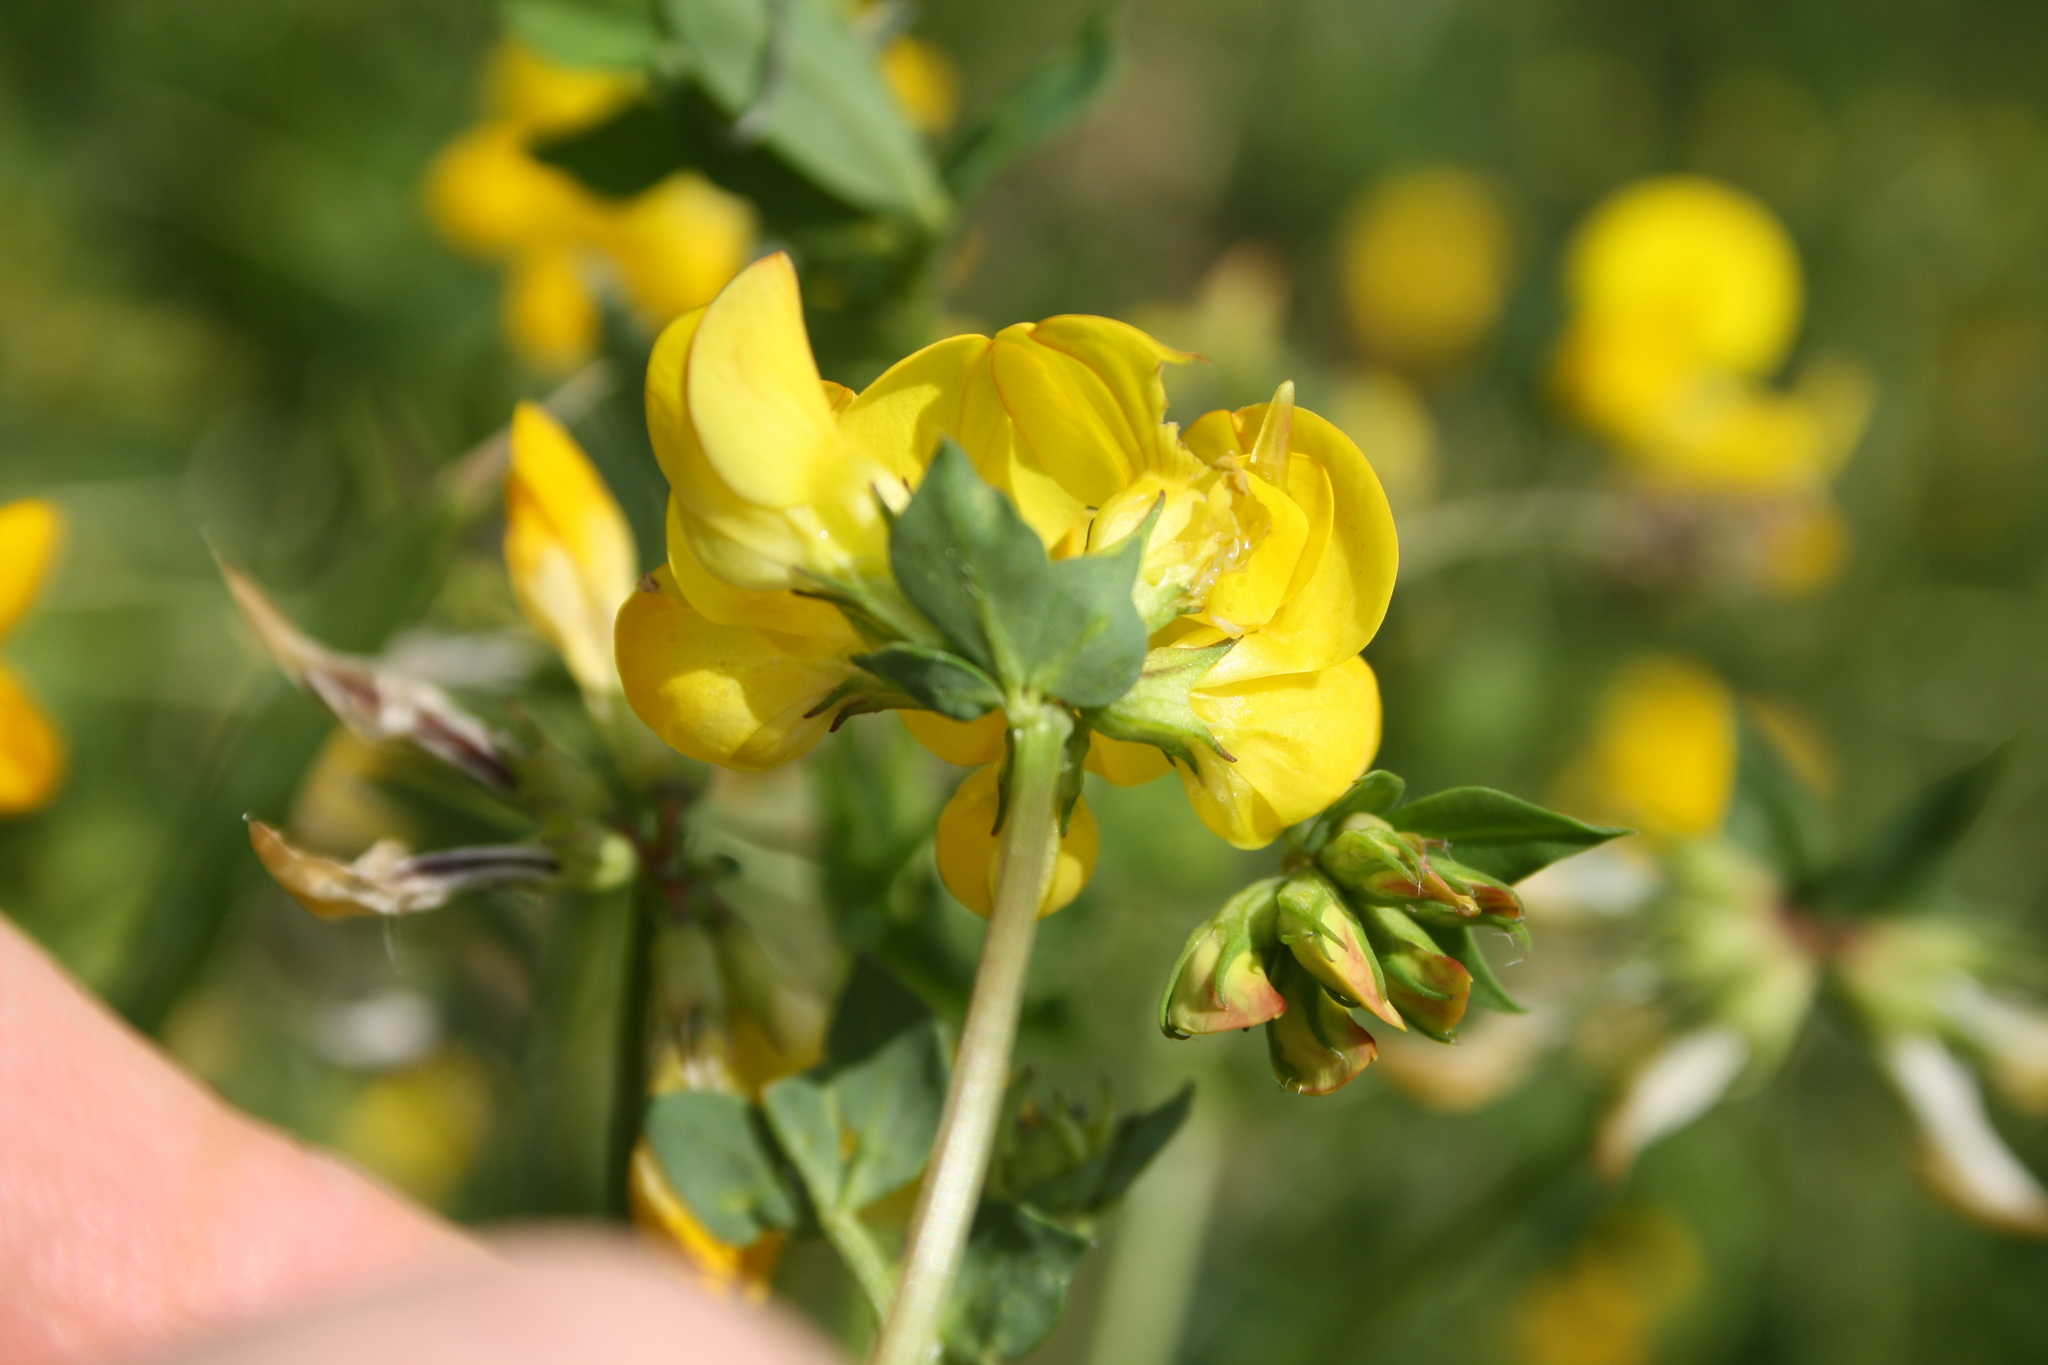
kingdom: Plantae
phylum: Tracheophyta
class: Magnoliopsida
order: Fabales
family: Fabaceae
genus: Lotus
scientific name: Lotus corniculatus
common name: Common bird's-foot-trefoil
